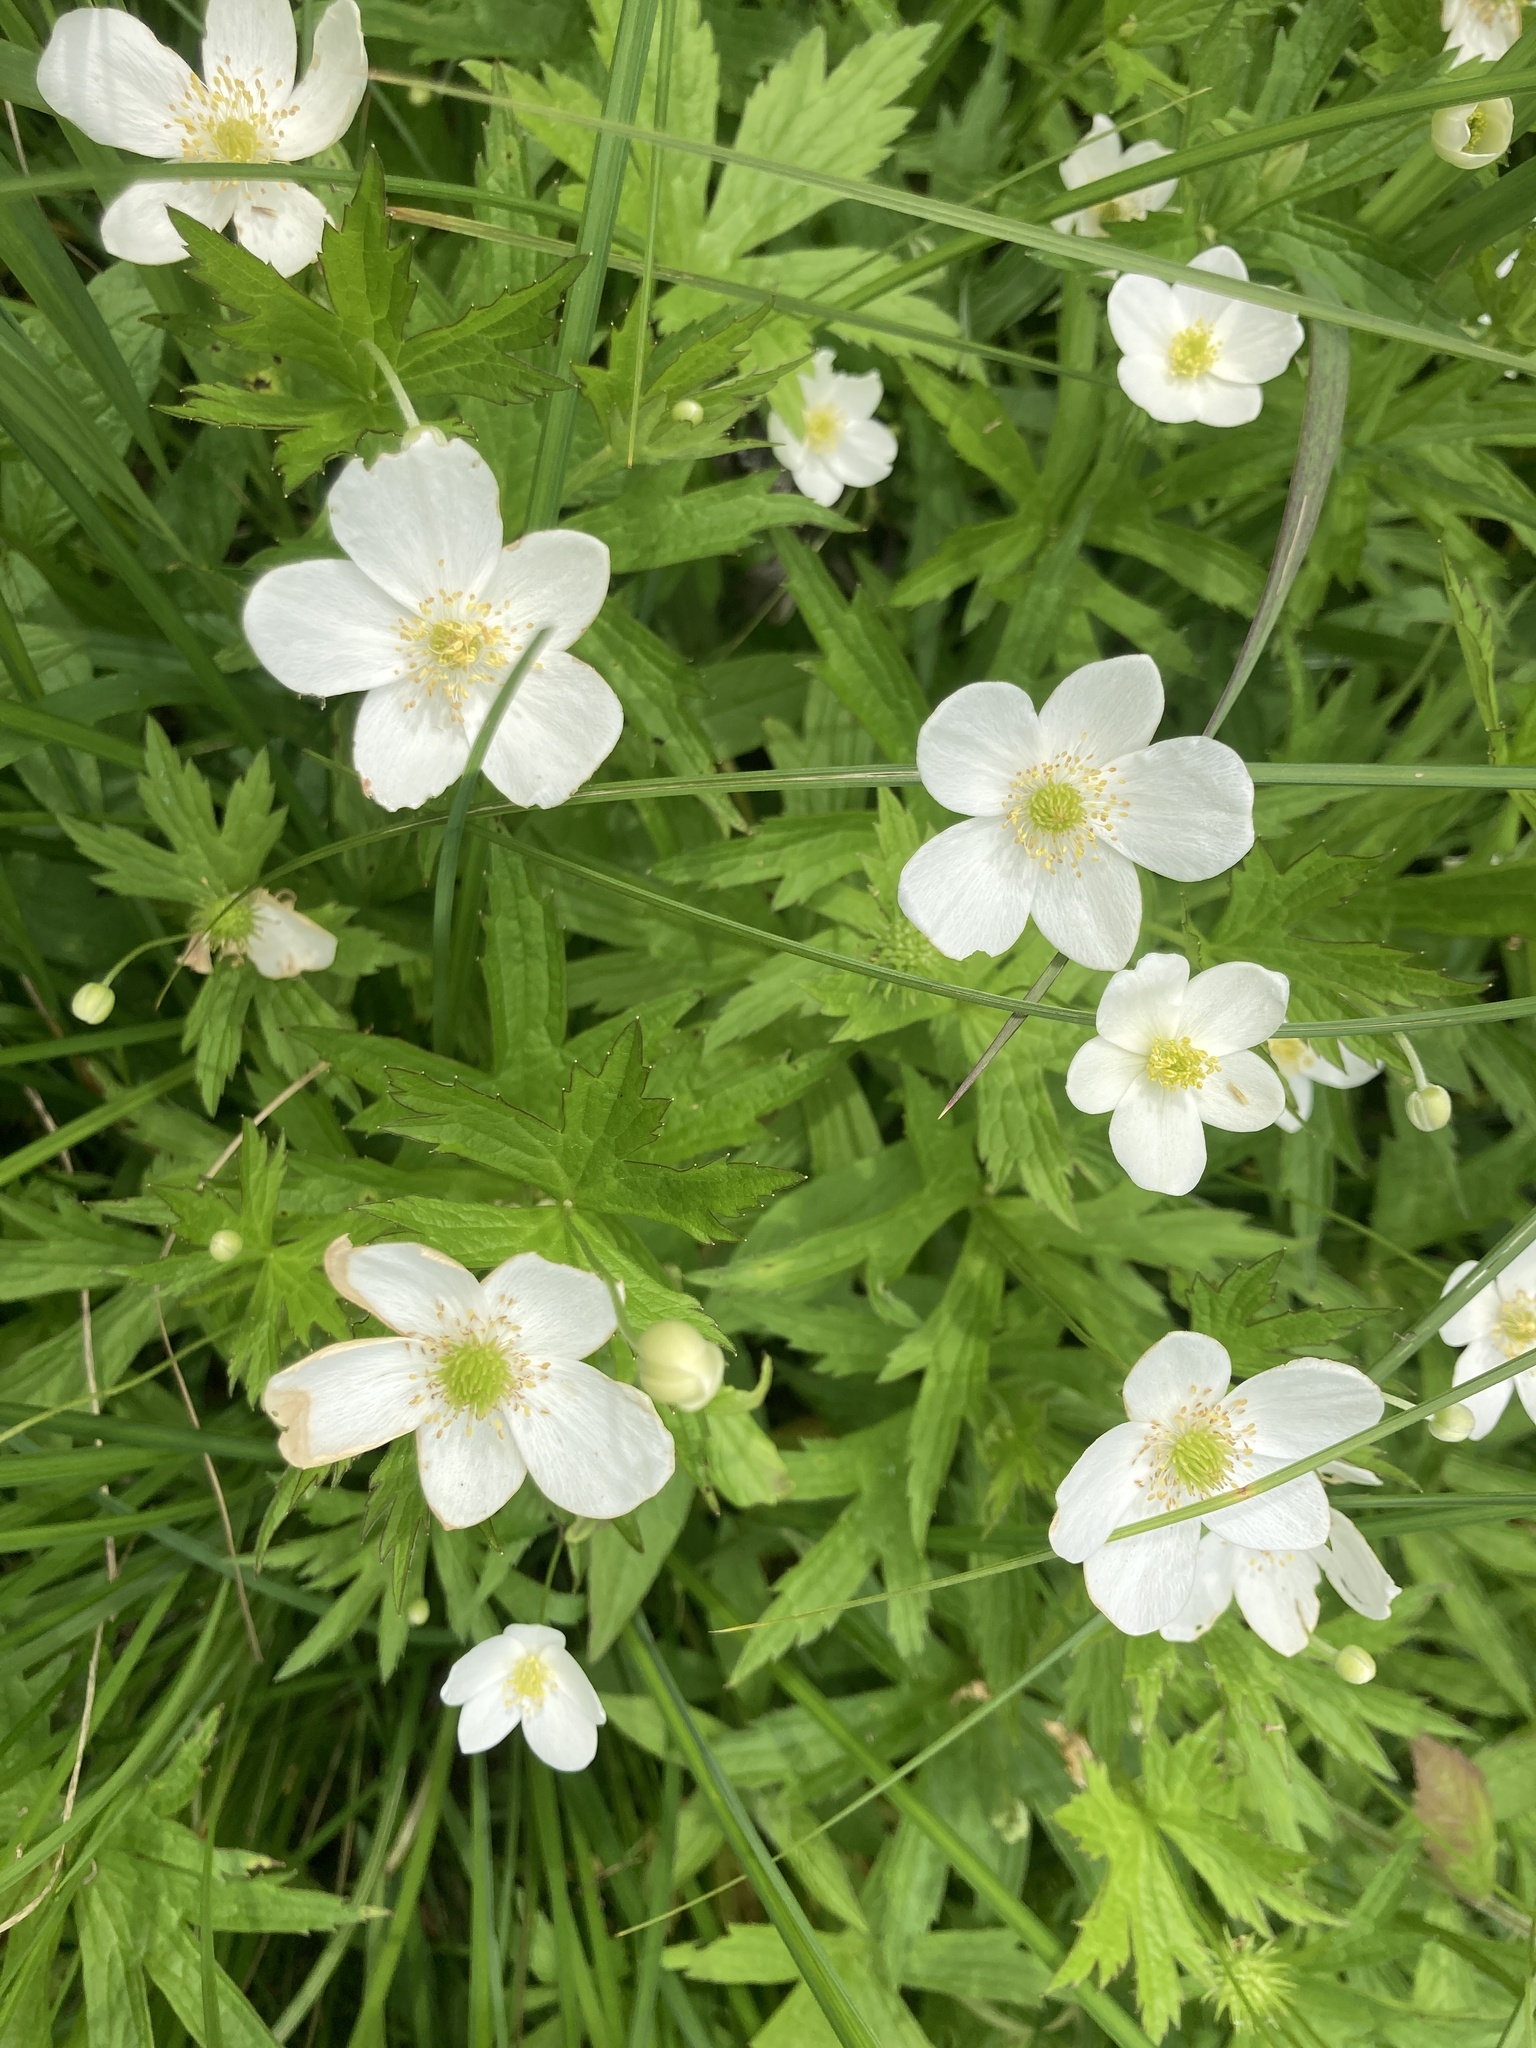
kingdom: Plantae
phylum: Tracheophyta
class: Magnoliopsida
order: Ranunculales
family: Ranunculaceae
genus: Anemonastrum
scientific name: Anemonastrum canadense
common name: Canada anemone
